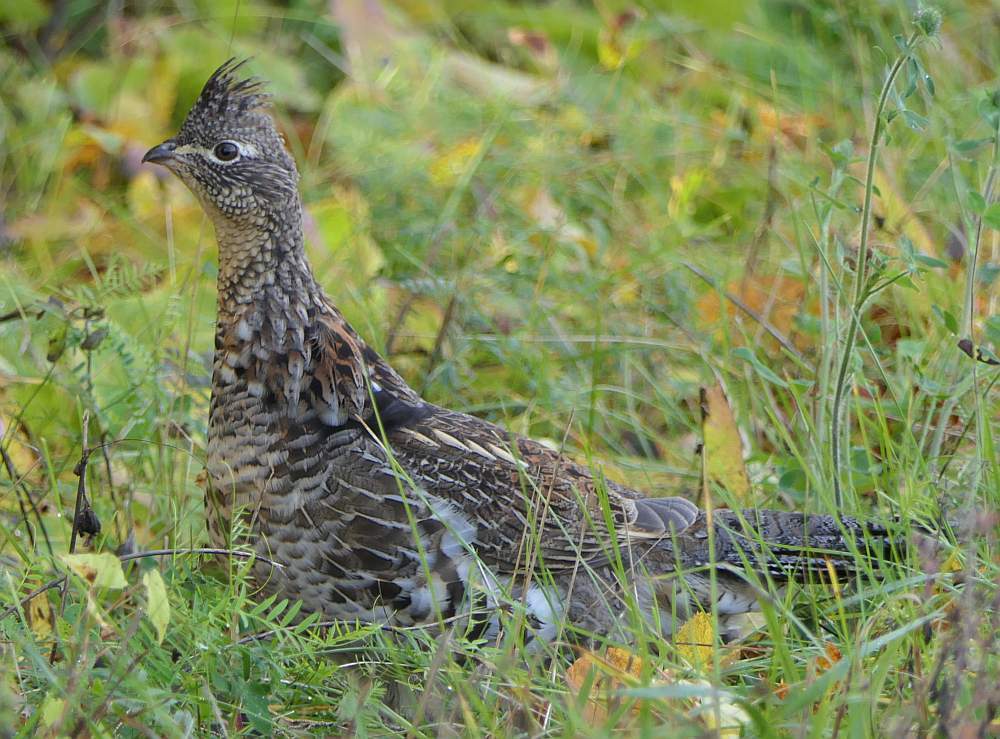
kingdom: Animalia
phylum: Chordata
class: Aves
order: Galliformes
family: Phasianidae
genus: Bonasa
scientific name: Bonasa umbellus
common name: Ruffed grouse
